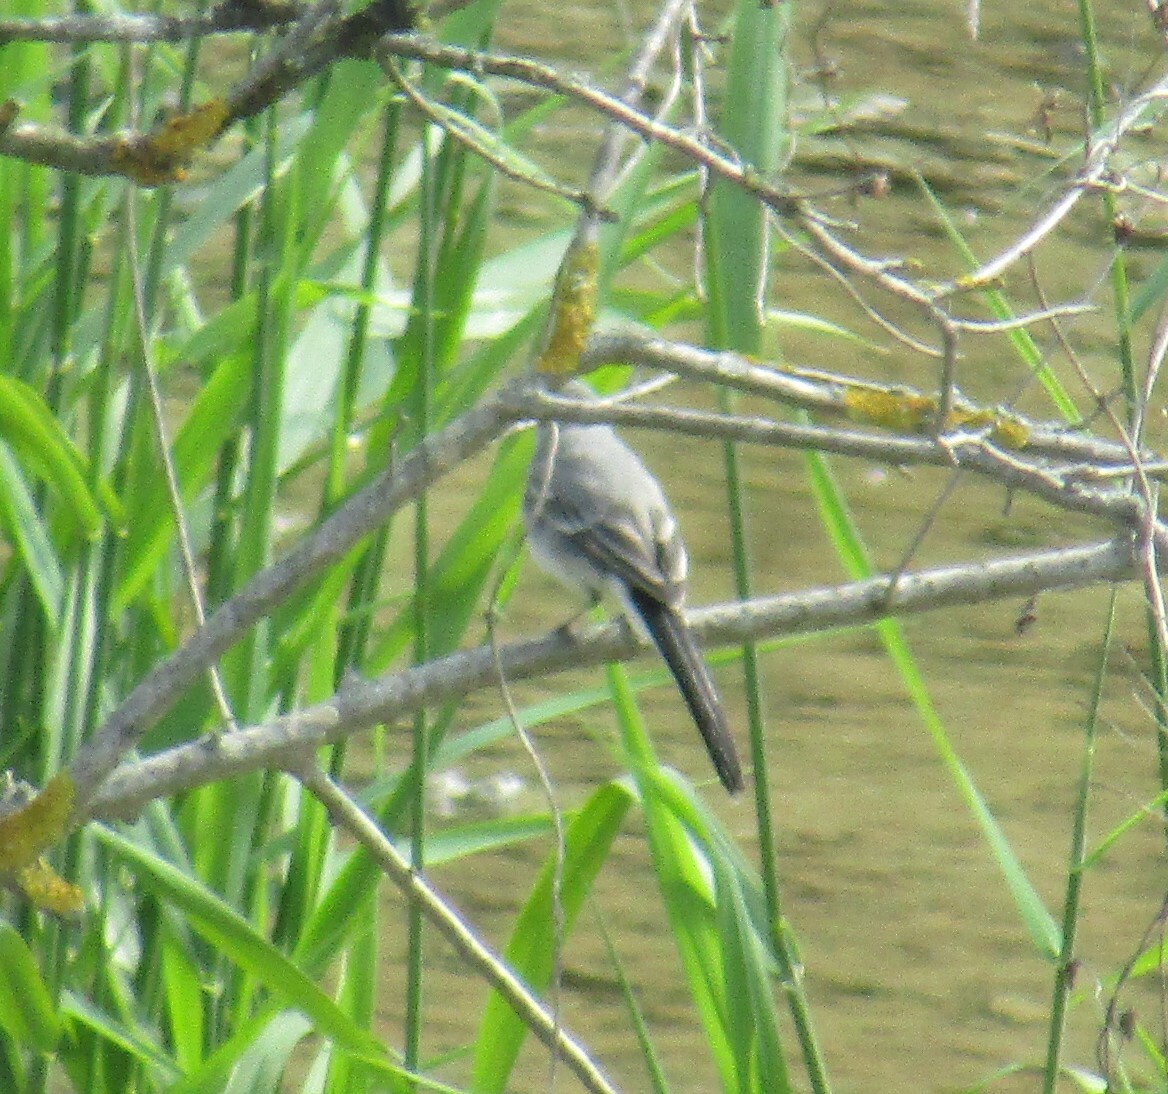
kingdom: Animalia
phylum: Chordata
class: Aves
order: Passeriformes
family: Motacillidae
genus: Motacilla
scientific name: Motacilla alba
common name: White wagtail
